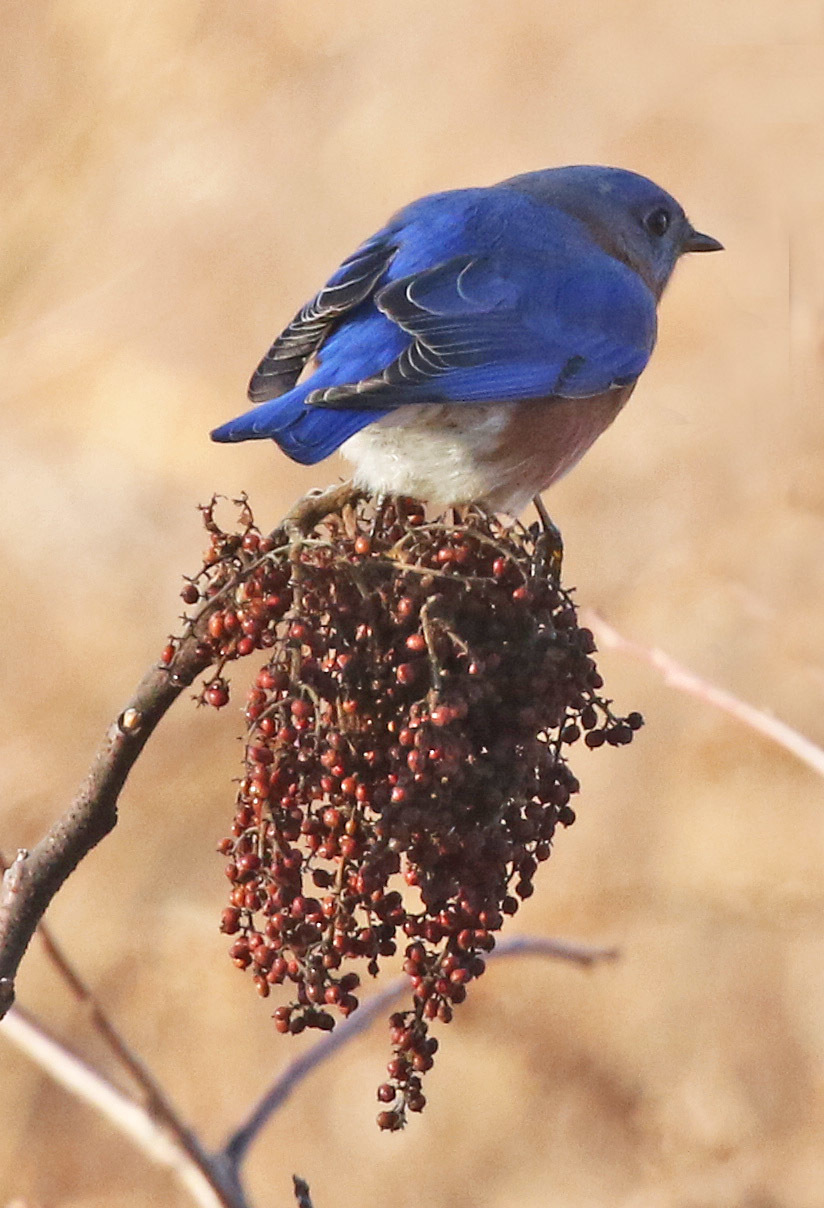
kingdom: Animalia
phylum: Chordata
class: Aves
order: Passeriformes
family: Turdidae
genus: Sialia
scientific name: Sialia sialis
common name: Eastern bluebird
